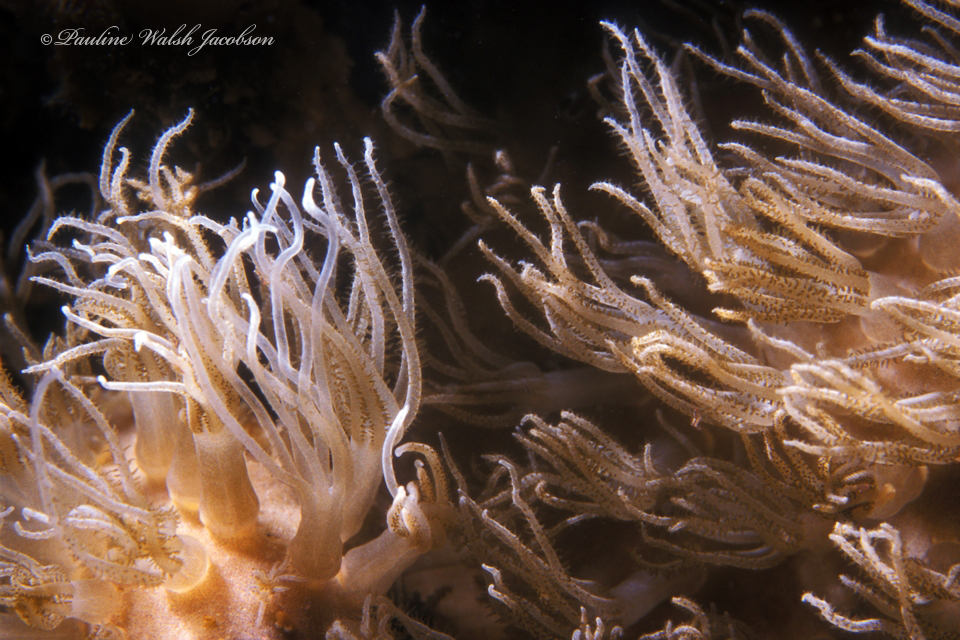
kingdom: Animalia
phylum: Cnidaria
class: Anthozoa
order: Scleralcyonacea
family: Erythropodiidae
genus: Erythropodium
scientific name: Erythropodium caribaeorum
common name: Encrusting gorgonian
